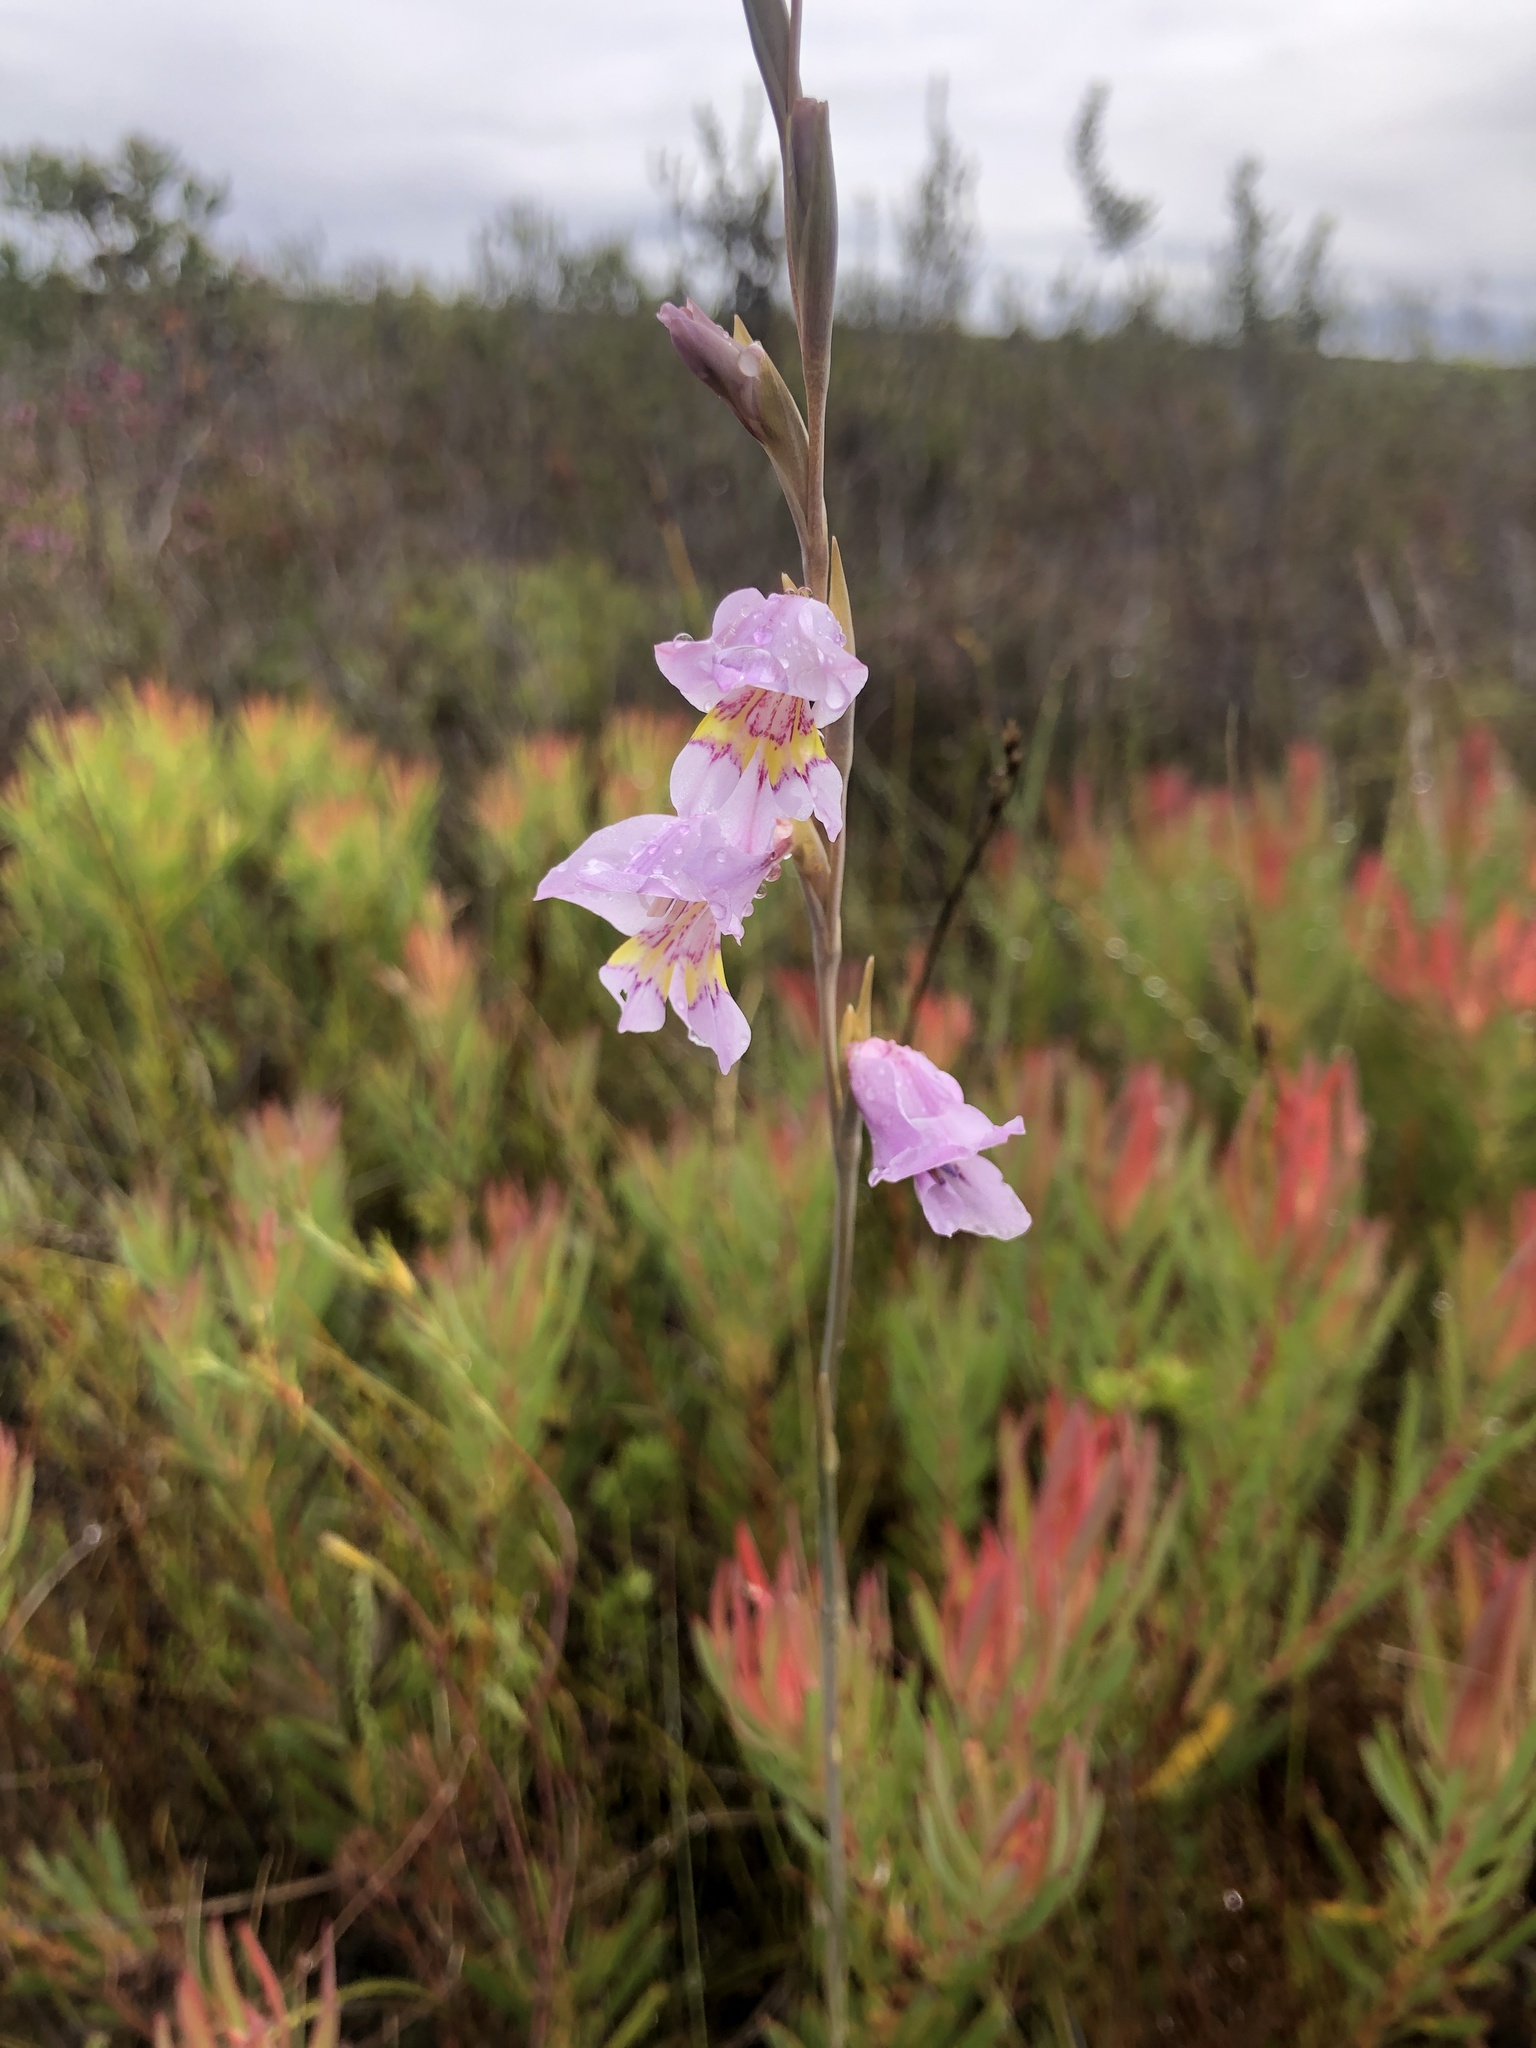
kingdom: Plantae
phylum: Tracheophyta
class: Liliopsida
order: Asparagales
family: Iridaceae
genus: Gladiolus
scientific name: Gladiolus brevifolius
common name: March pypie
